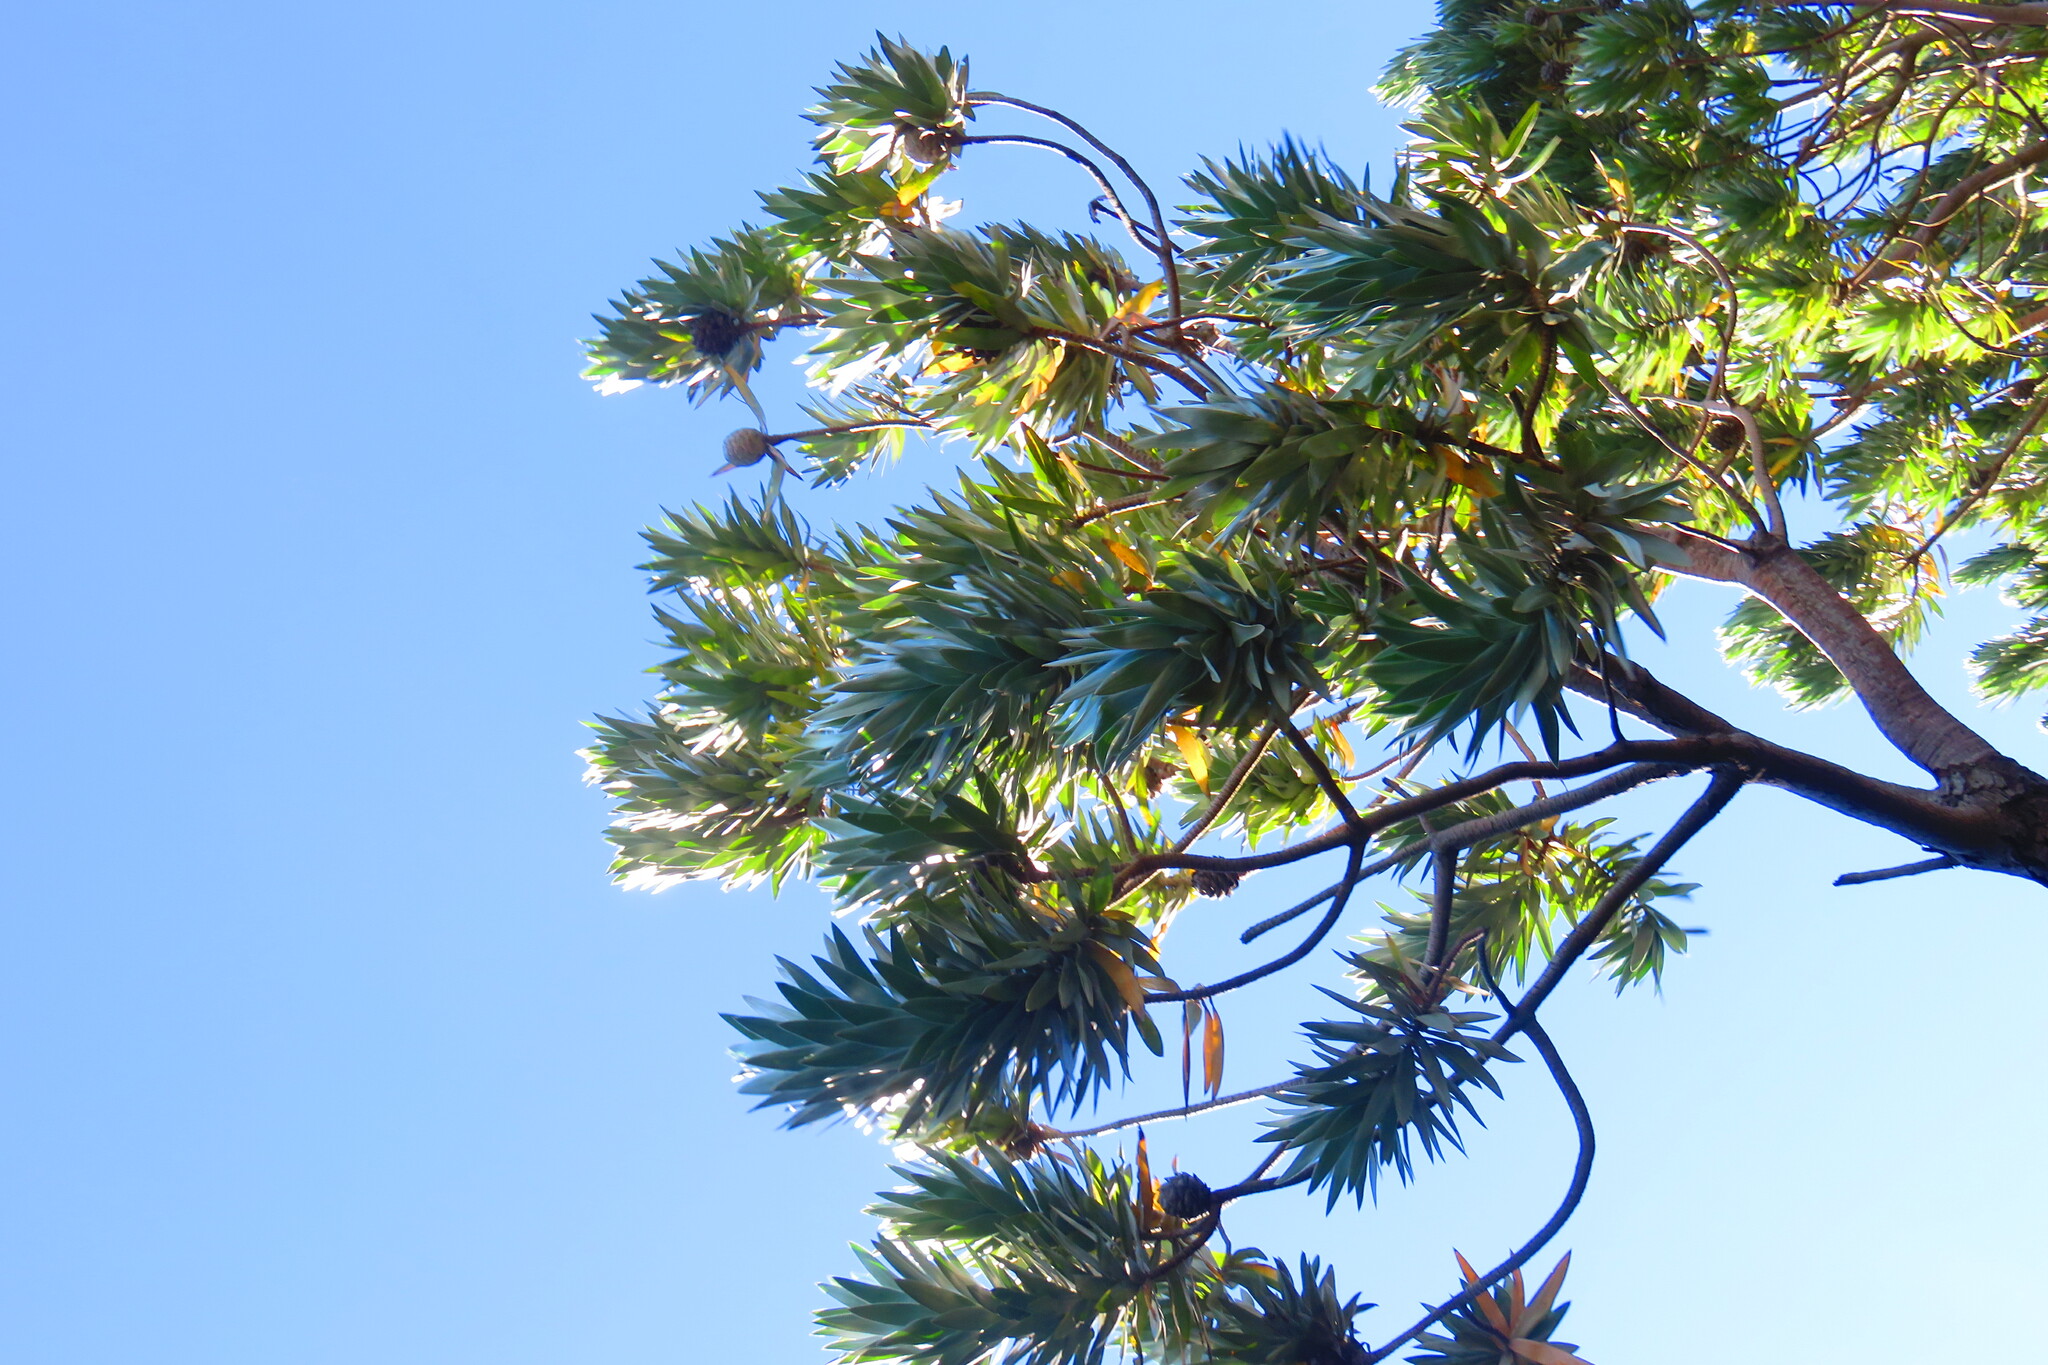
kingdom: Plantae
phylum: Tracheophyta
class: Magnoliopsida
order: Proteales
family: Proteaceae
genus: Leucadendron
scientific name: Leucadendron argenteum
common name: Cape silver tree
